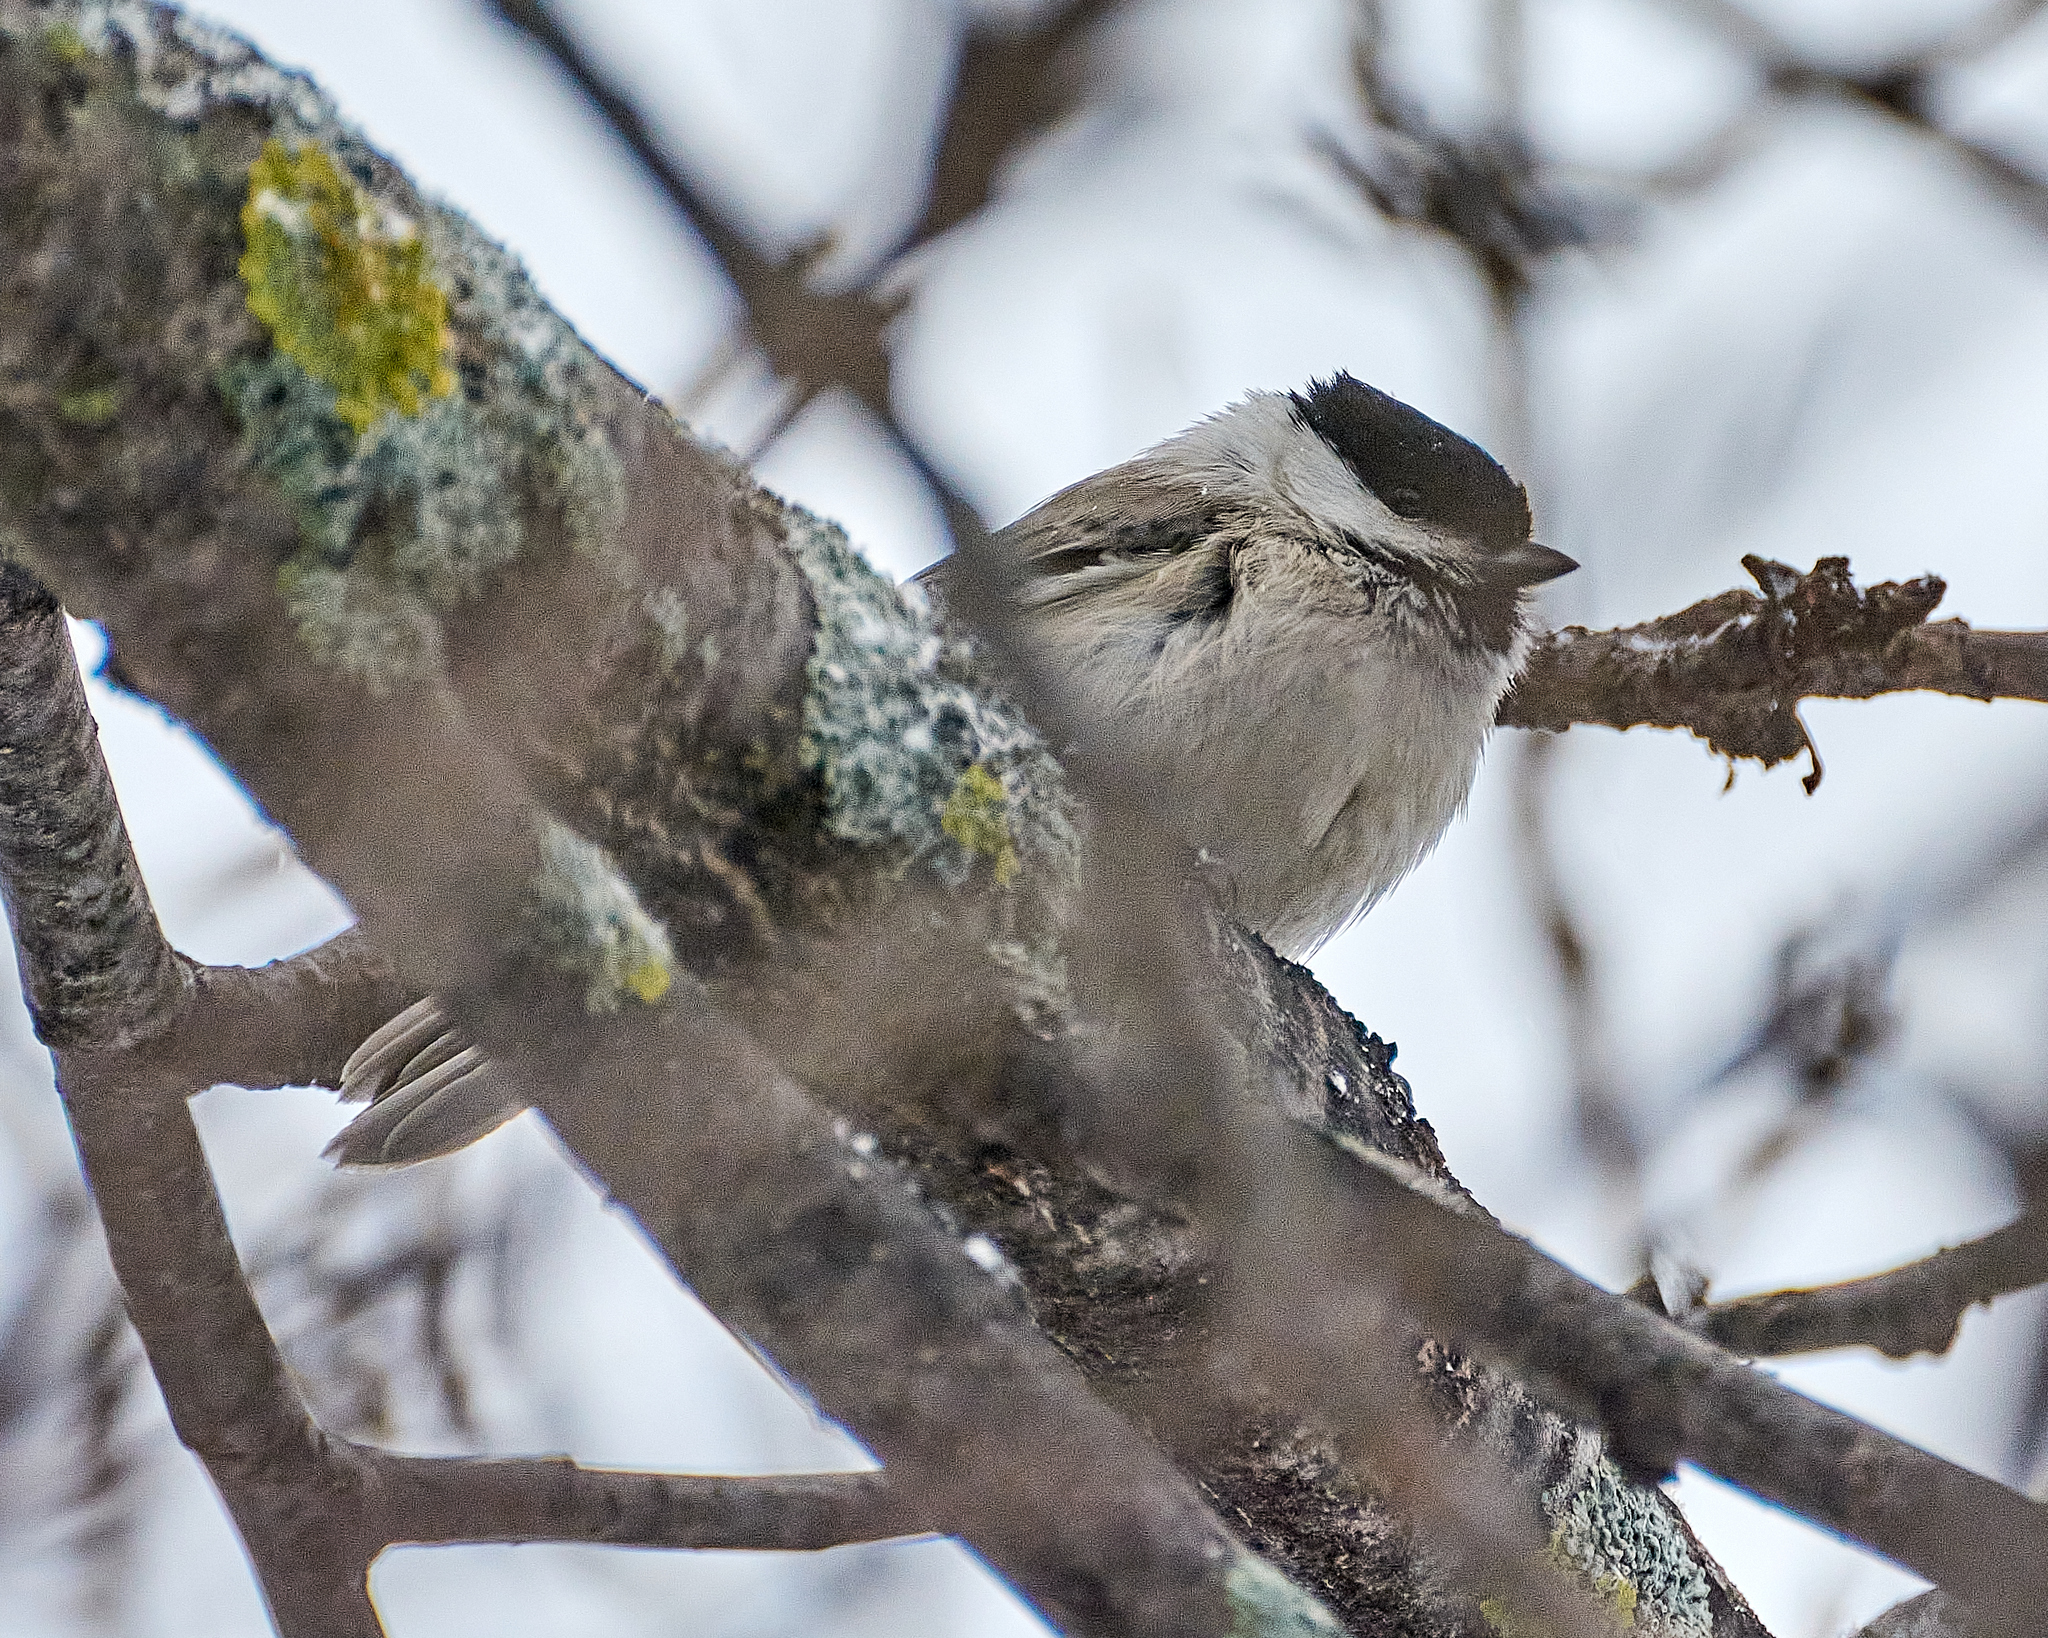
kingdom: Animalia
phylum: Chordata
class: Aves
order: Passeriformes
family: Paridae
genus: Poecile
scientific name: Poecile palustris
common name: Marsh tit
